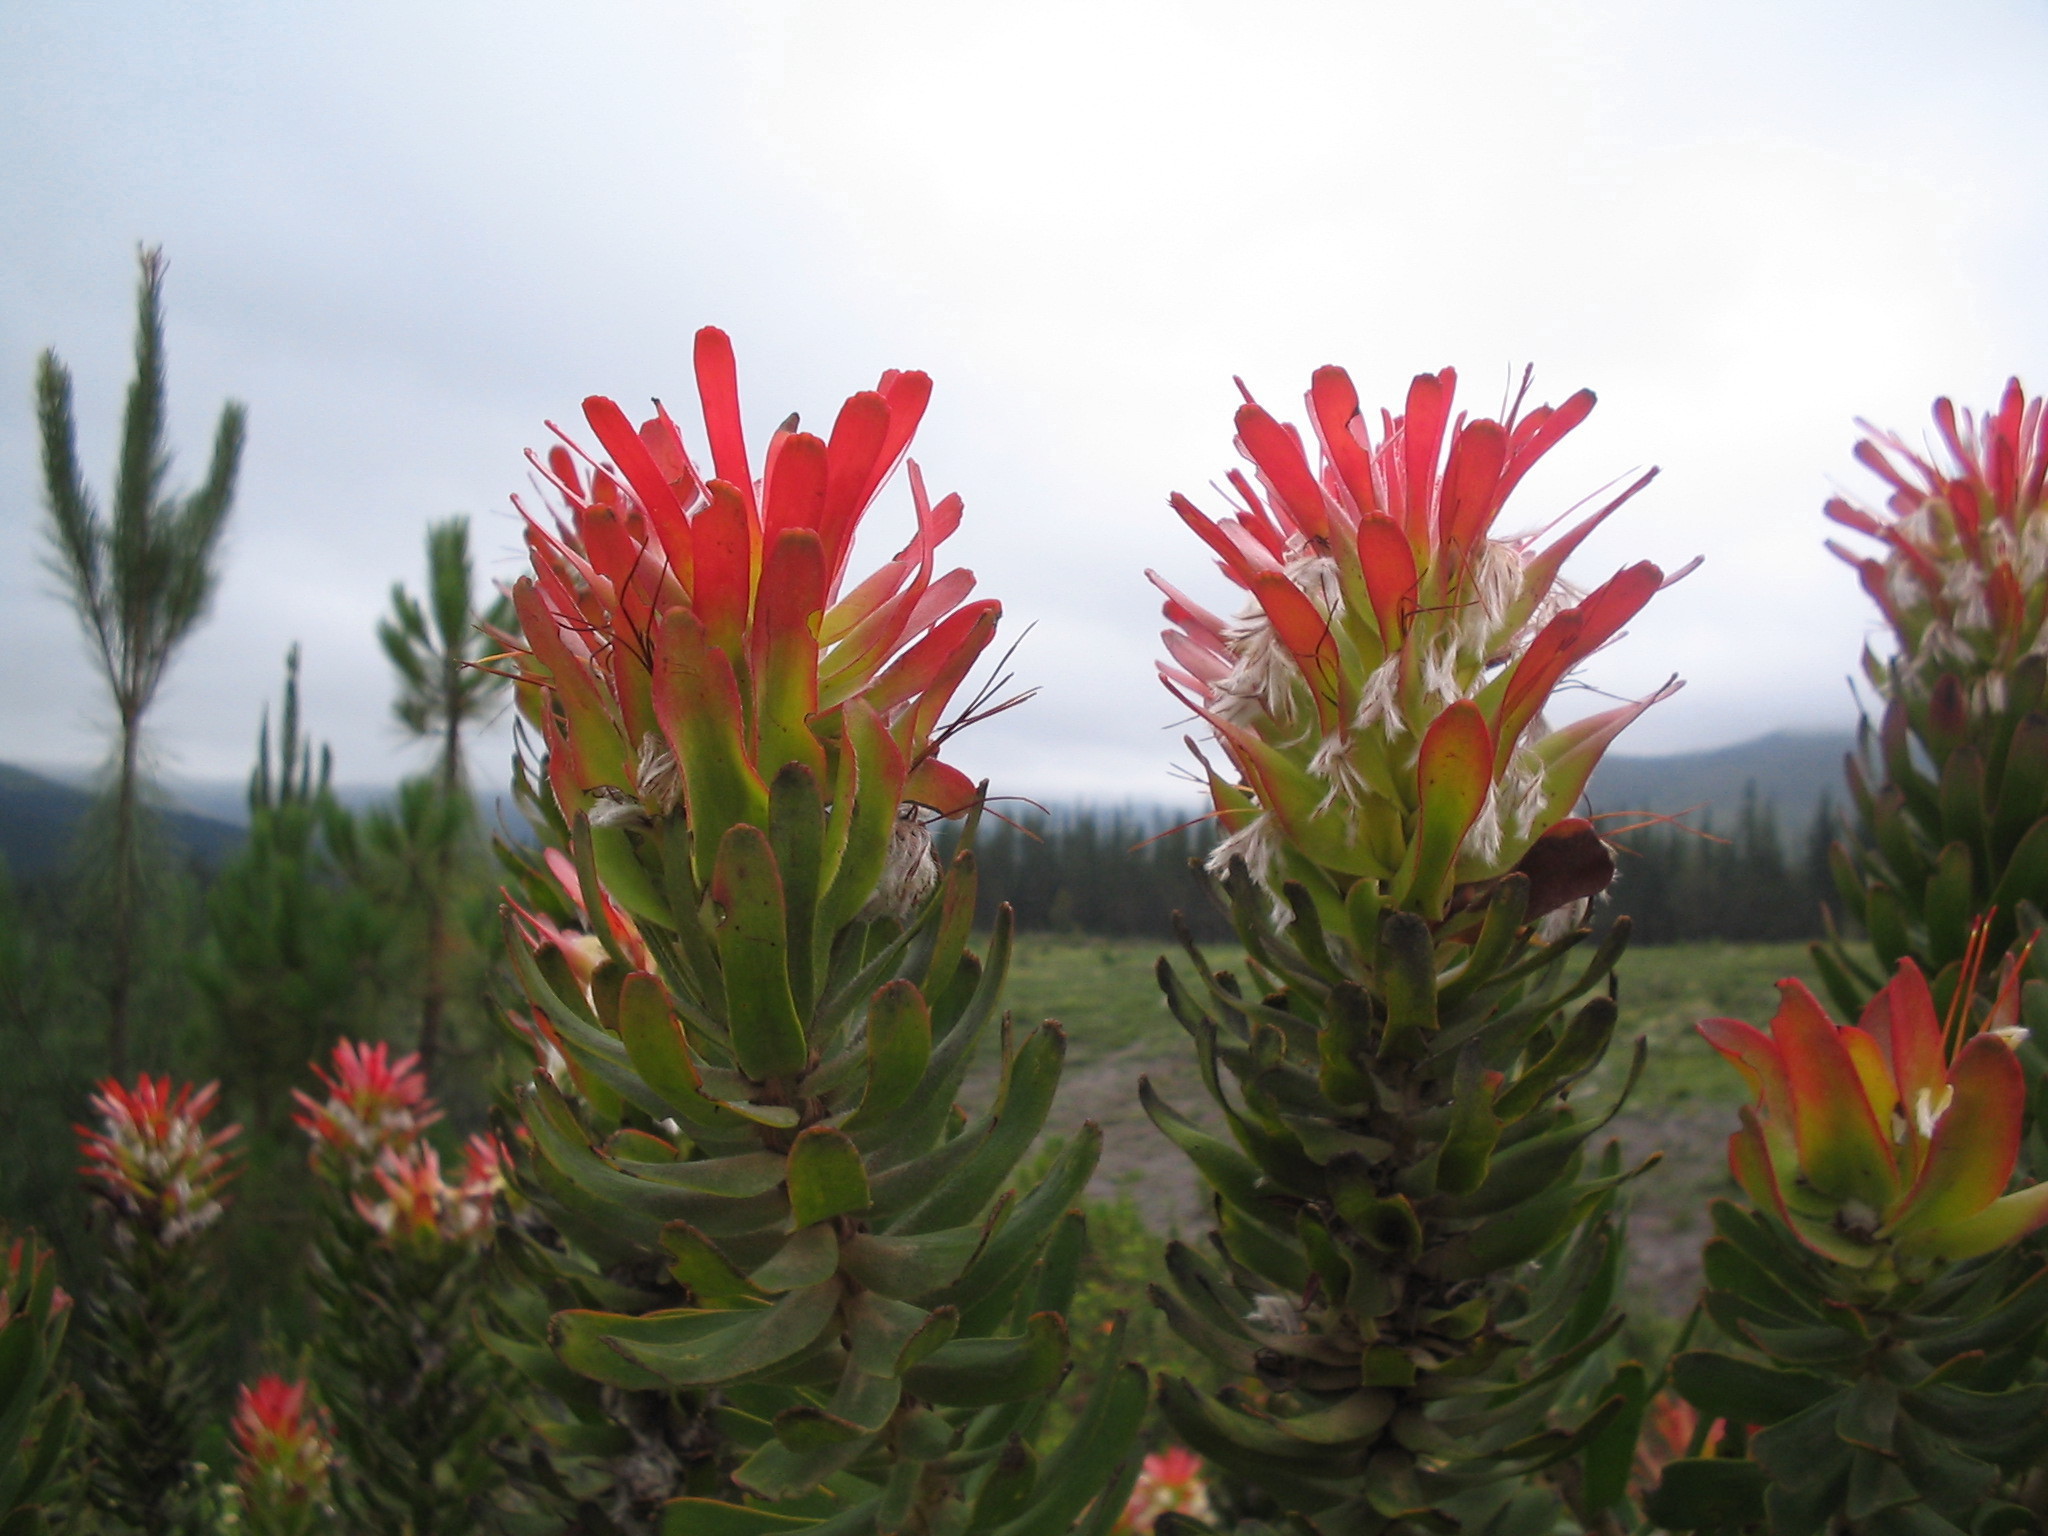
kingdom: Plantae
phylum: Tracheophyta
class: Magnoliopsida
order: Proteales
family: Proteaceae
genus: Mimetes
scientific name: Mimetes cucullatus
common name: Common pagoda
